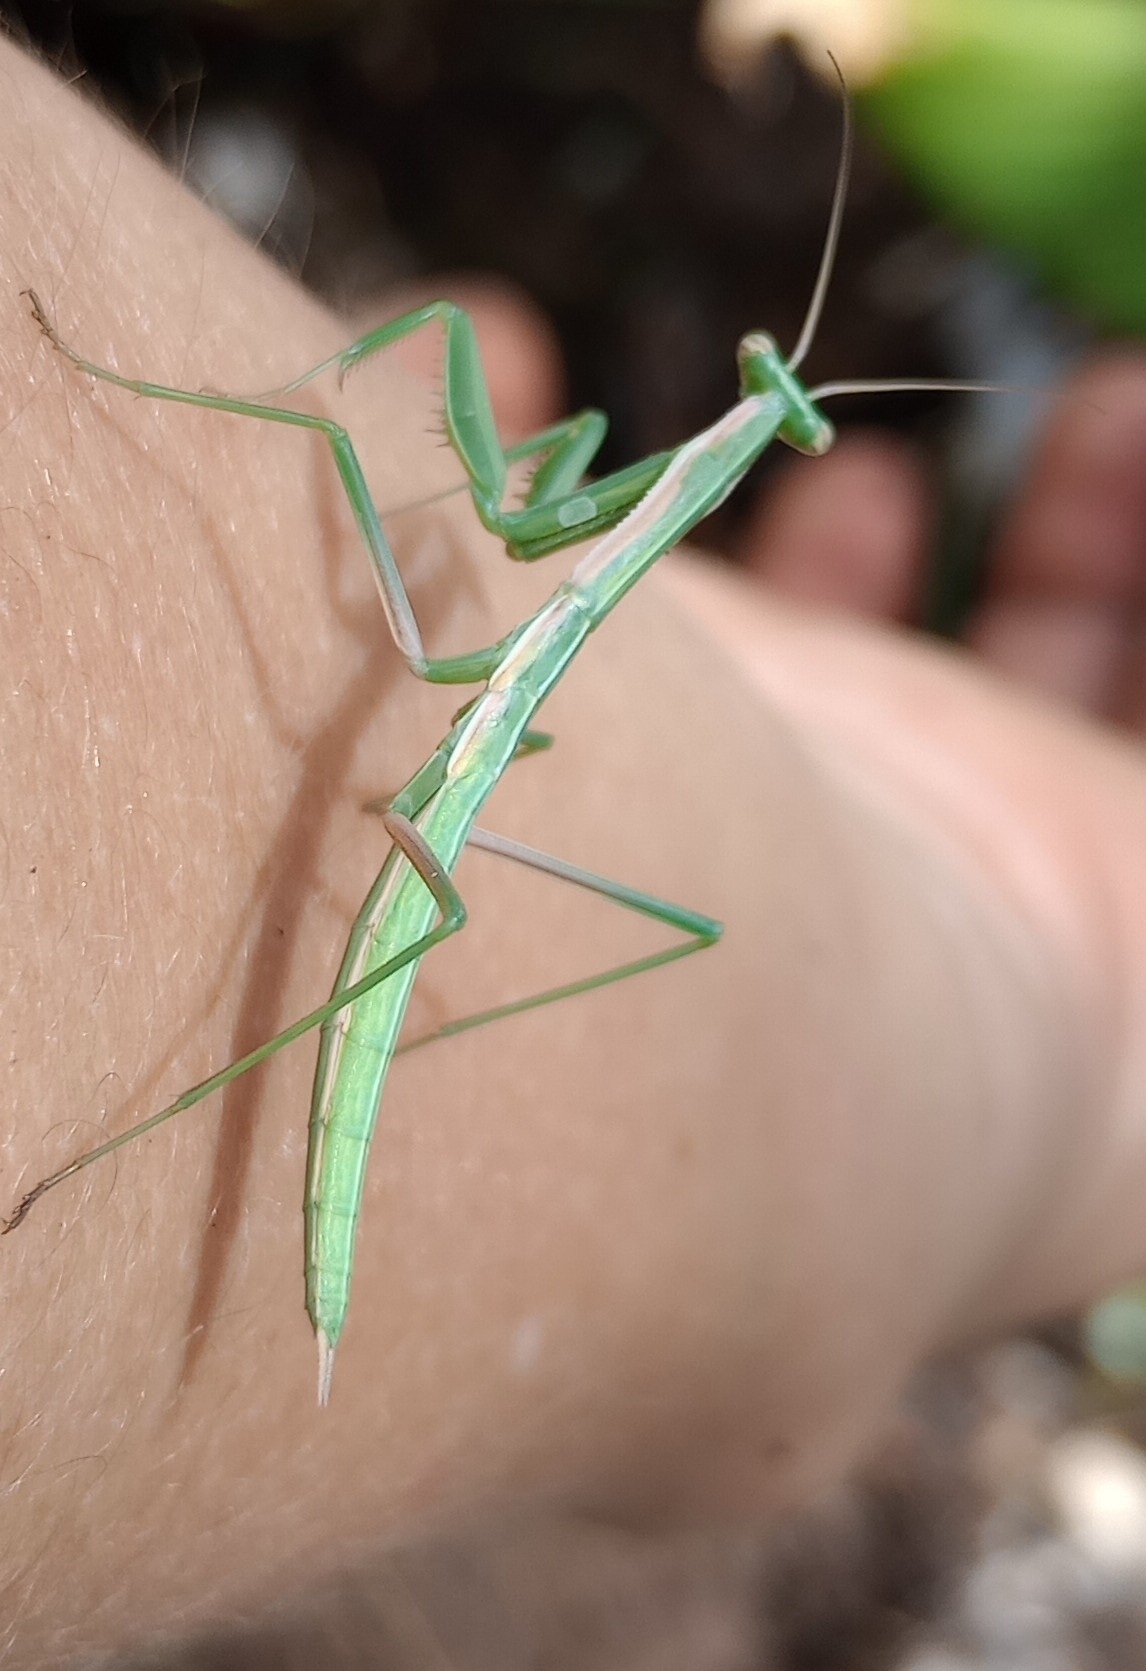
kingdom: Animalia
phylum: Arthropoda
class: Insecta
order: Mantodea
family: Coptopterygidae
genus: Coptopteryx
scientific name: Coptopteryx argentina
